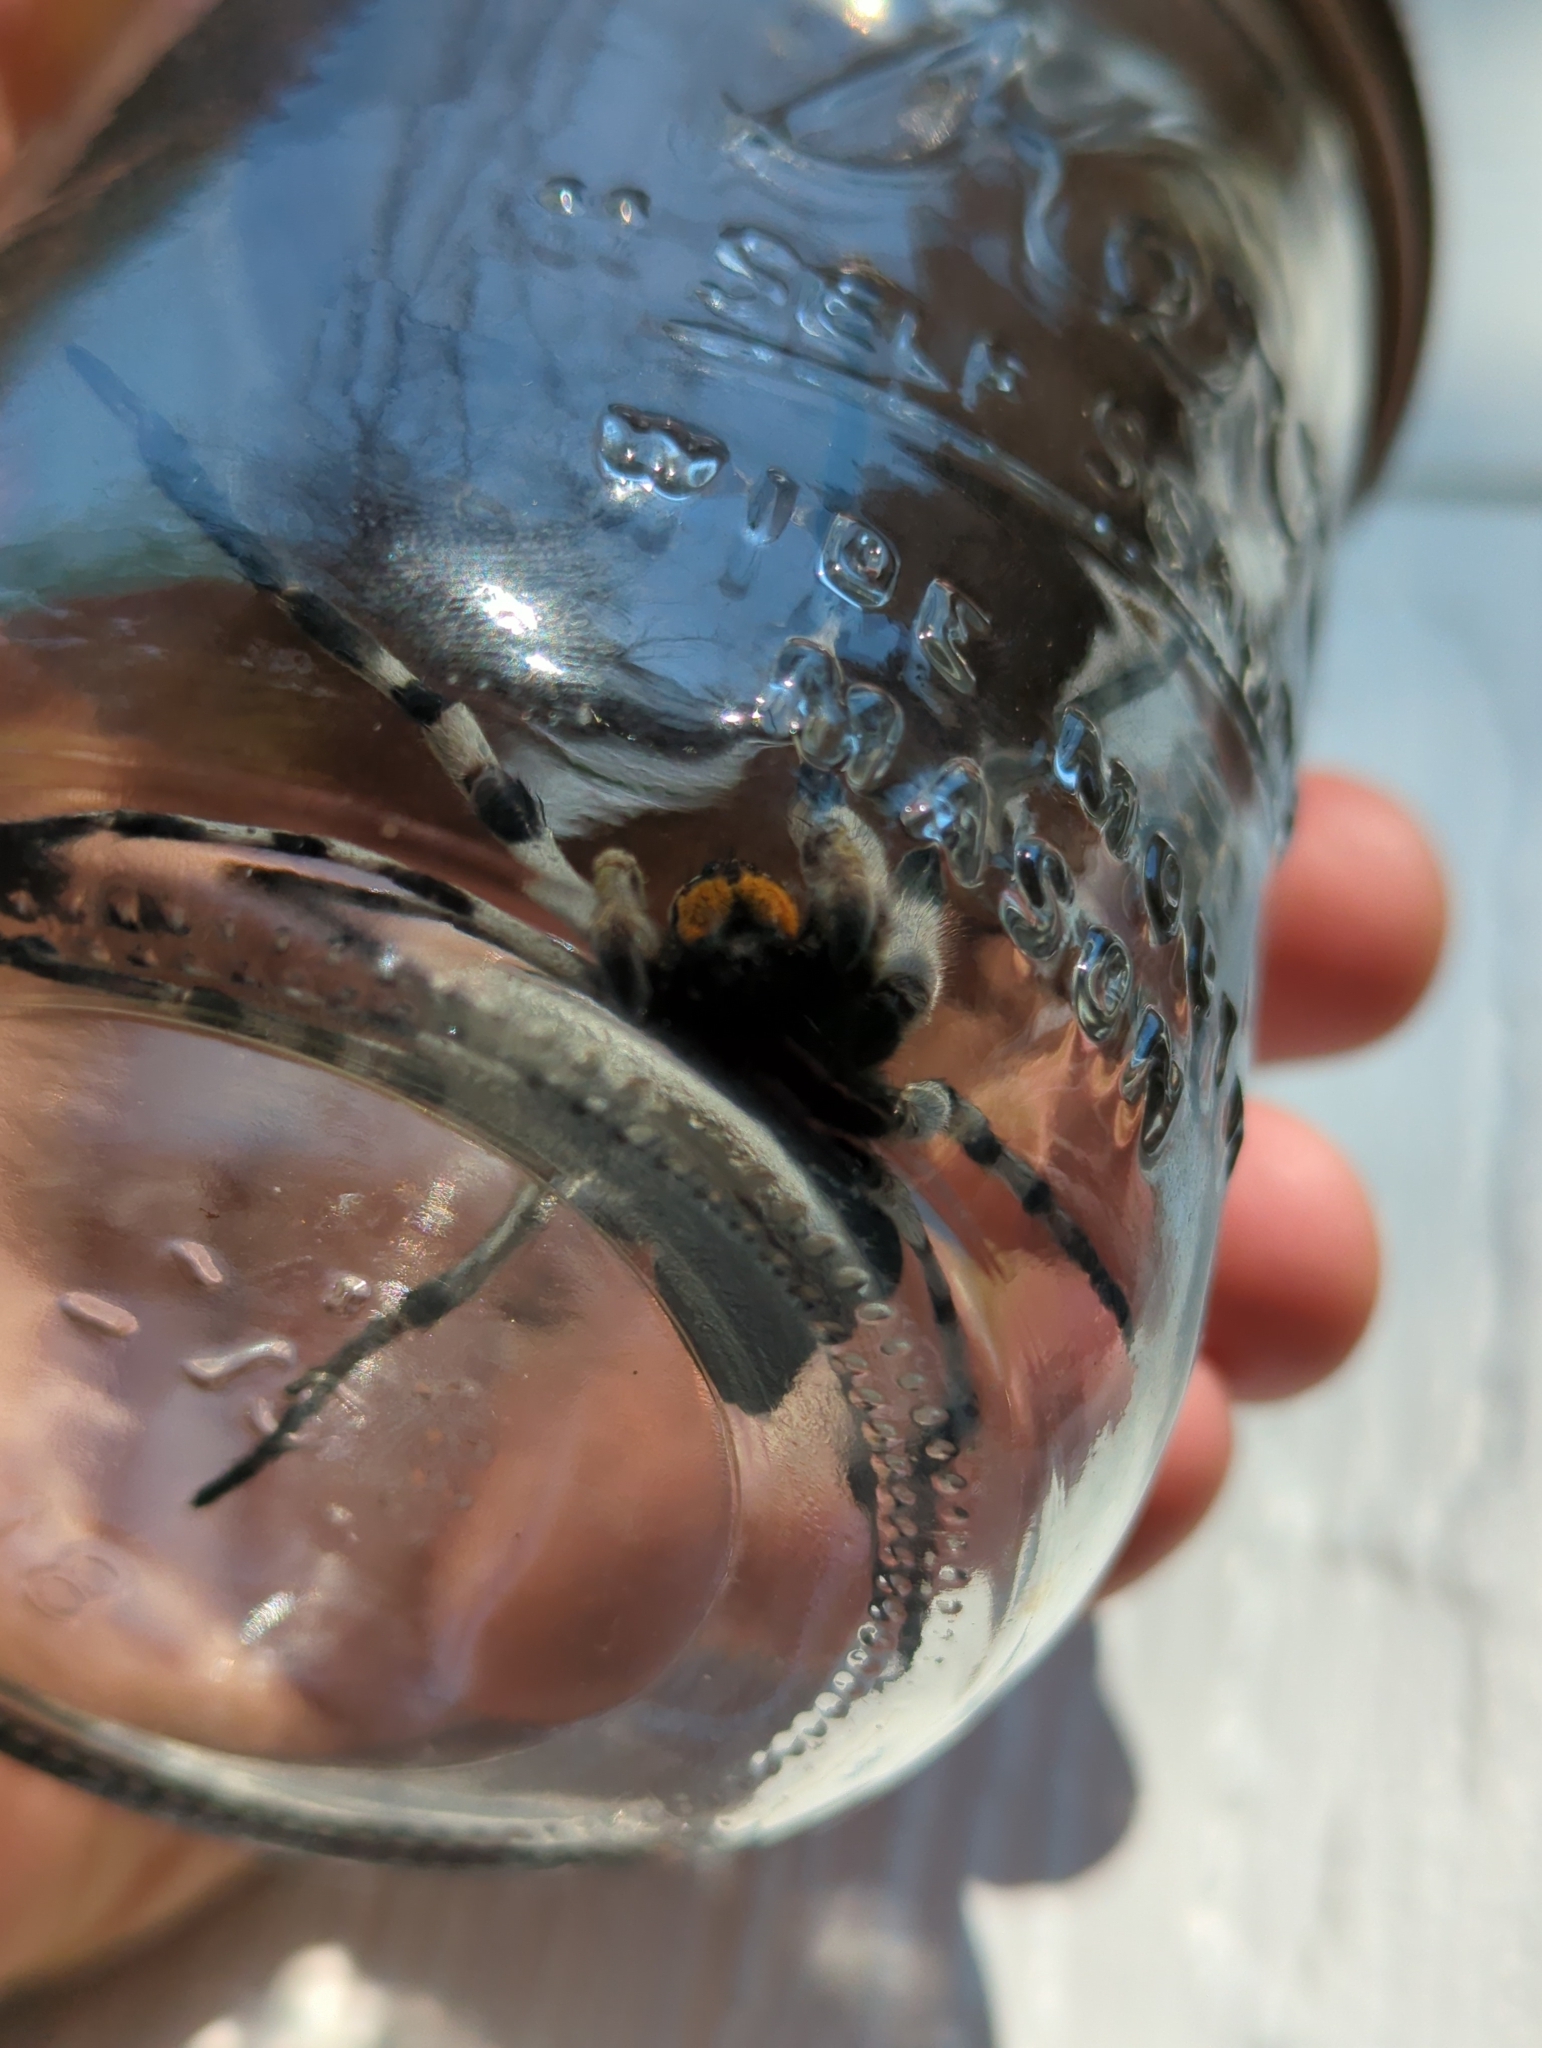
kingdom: Animalia
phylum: Arthropoda
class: Arachnida
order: Araneae
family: Lycosidae
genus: Hogna
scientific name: Hogna carolinensis
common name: Carolina wolf spider
